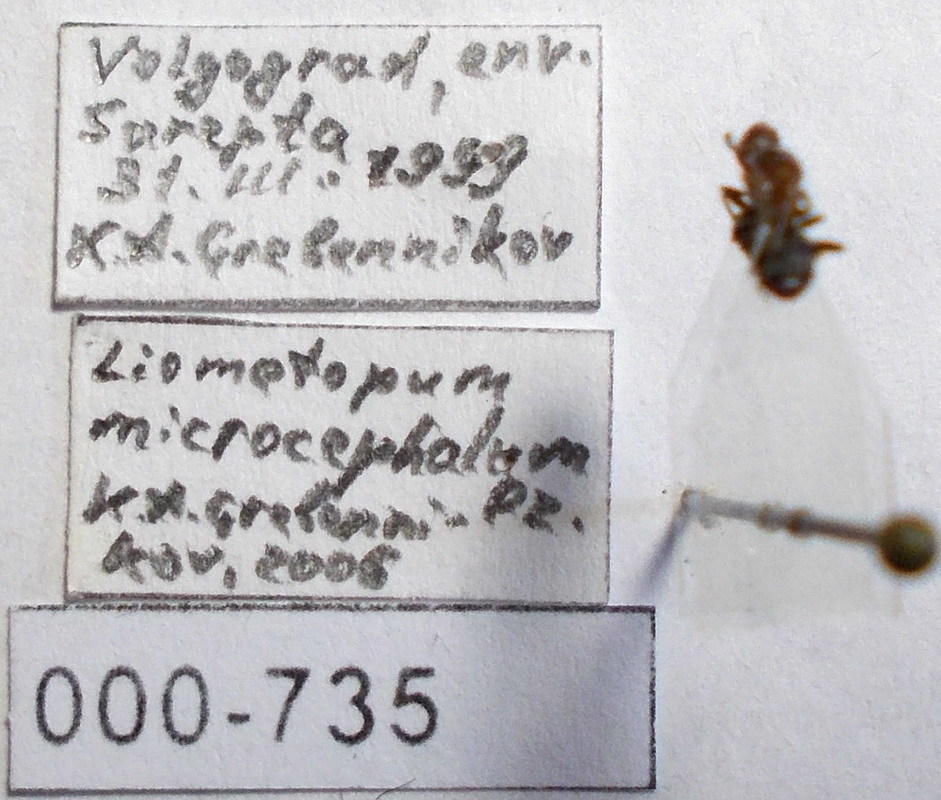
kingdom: Animalia
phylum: Arthropoda
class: Insecta
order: Hymenoptera
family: Formicidae
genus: Liometopum
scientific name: Liometopum microcephalum
